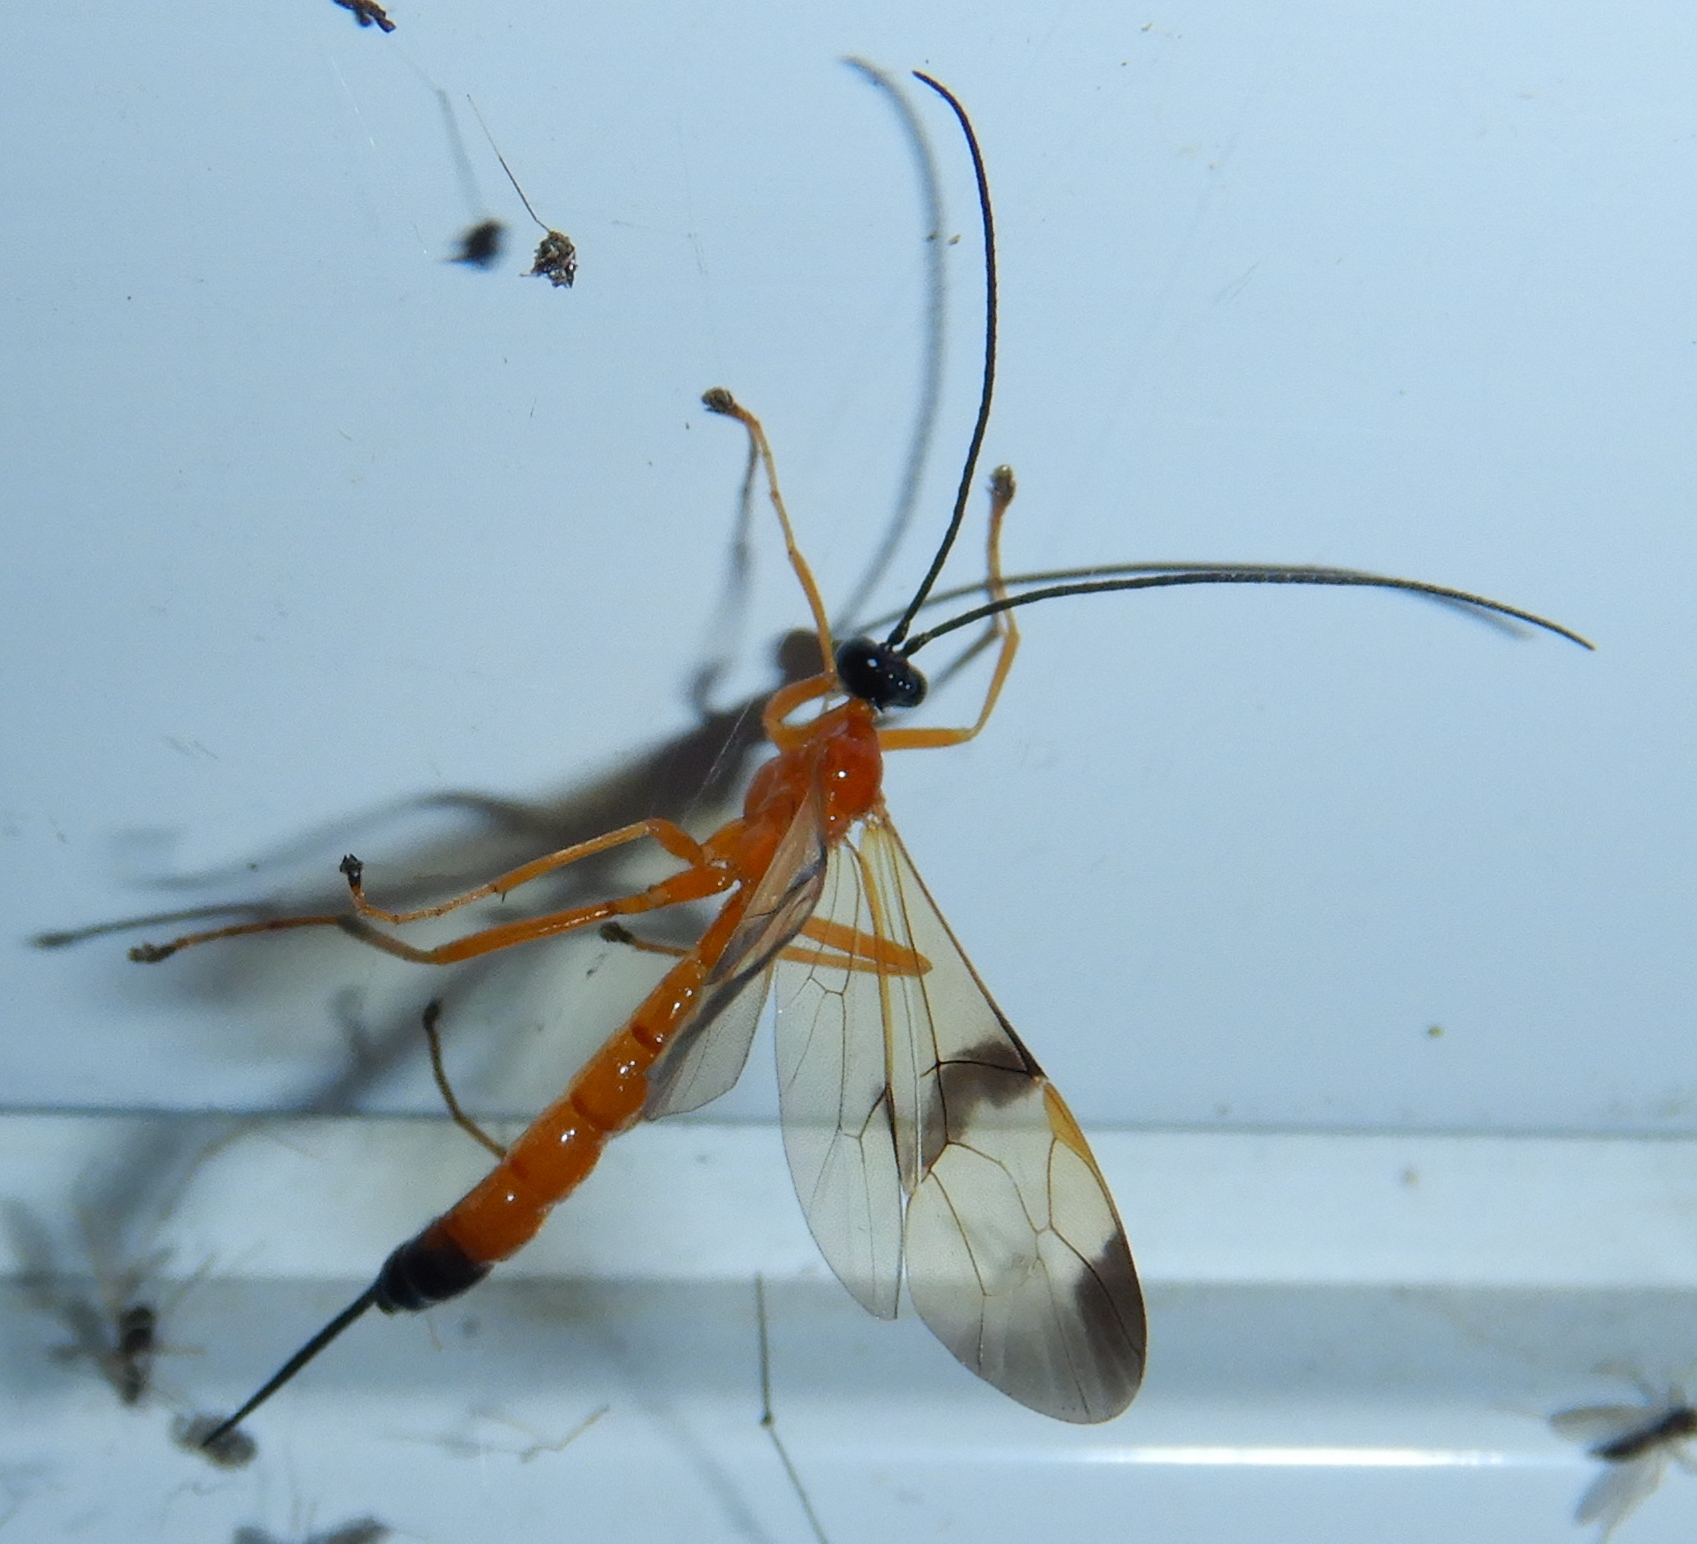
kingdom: Animalia
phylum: Arthropoda
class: Insecta
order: Hymenoptera
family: Ichneumonidae
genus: Acrotaphus
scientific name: Acrotaphus wiltii
